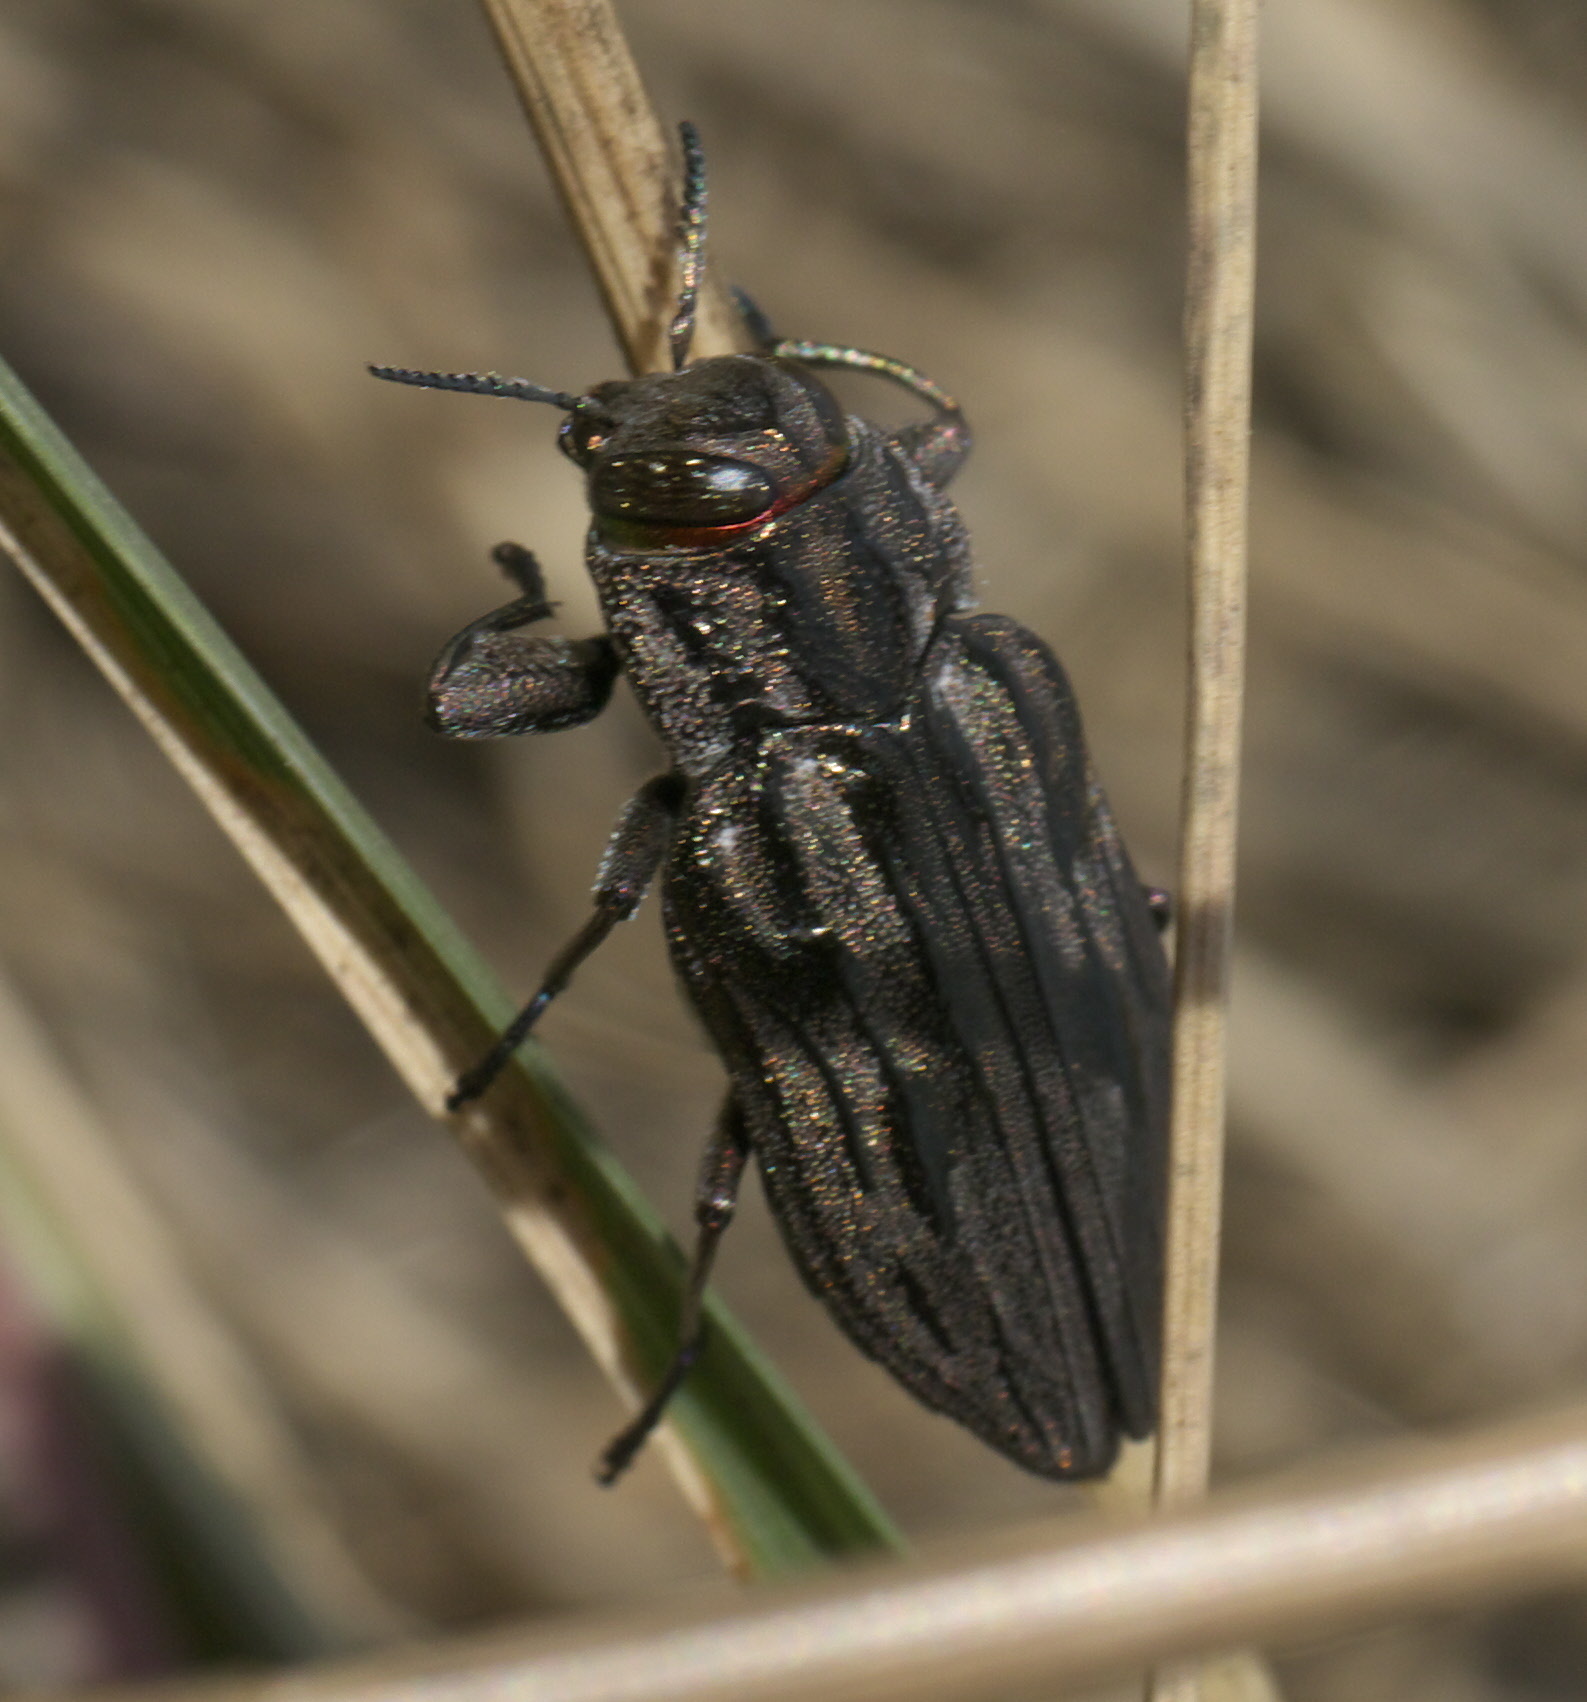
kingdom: Animalia
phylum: Arthropoda
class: Insecta
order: Coleoptera
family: Buprestidae
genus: Chrysobothris
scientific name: Chrysobothris quadrilineata
